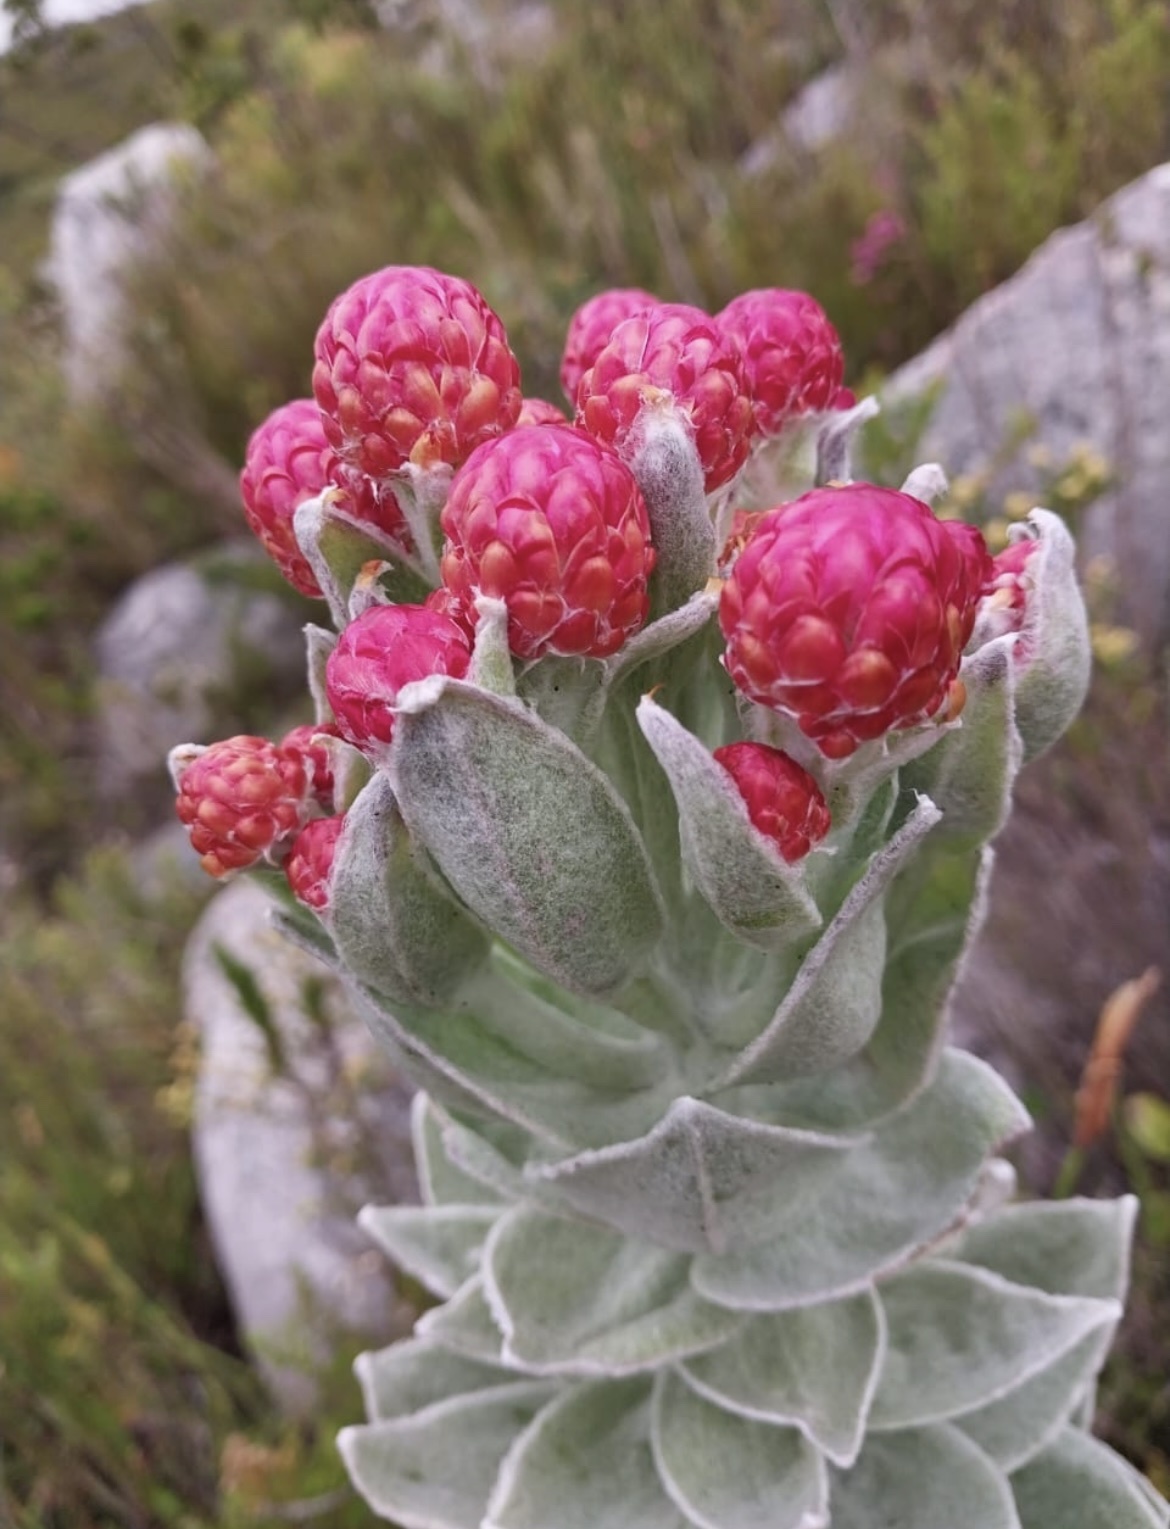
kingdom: Plantae
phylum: Tracheophyta
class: Magnoliopsida
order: Asterales
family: Asteraceae
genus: Syncarpha
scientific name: Syncarpha eximia
